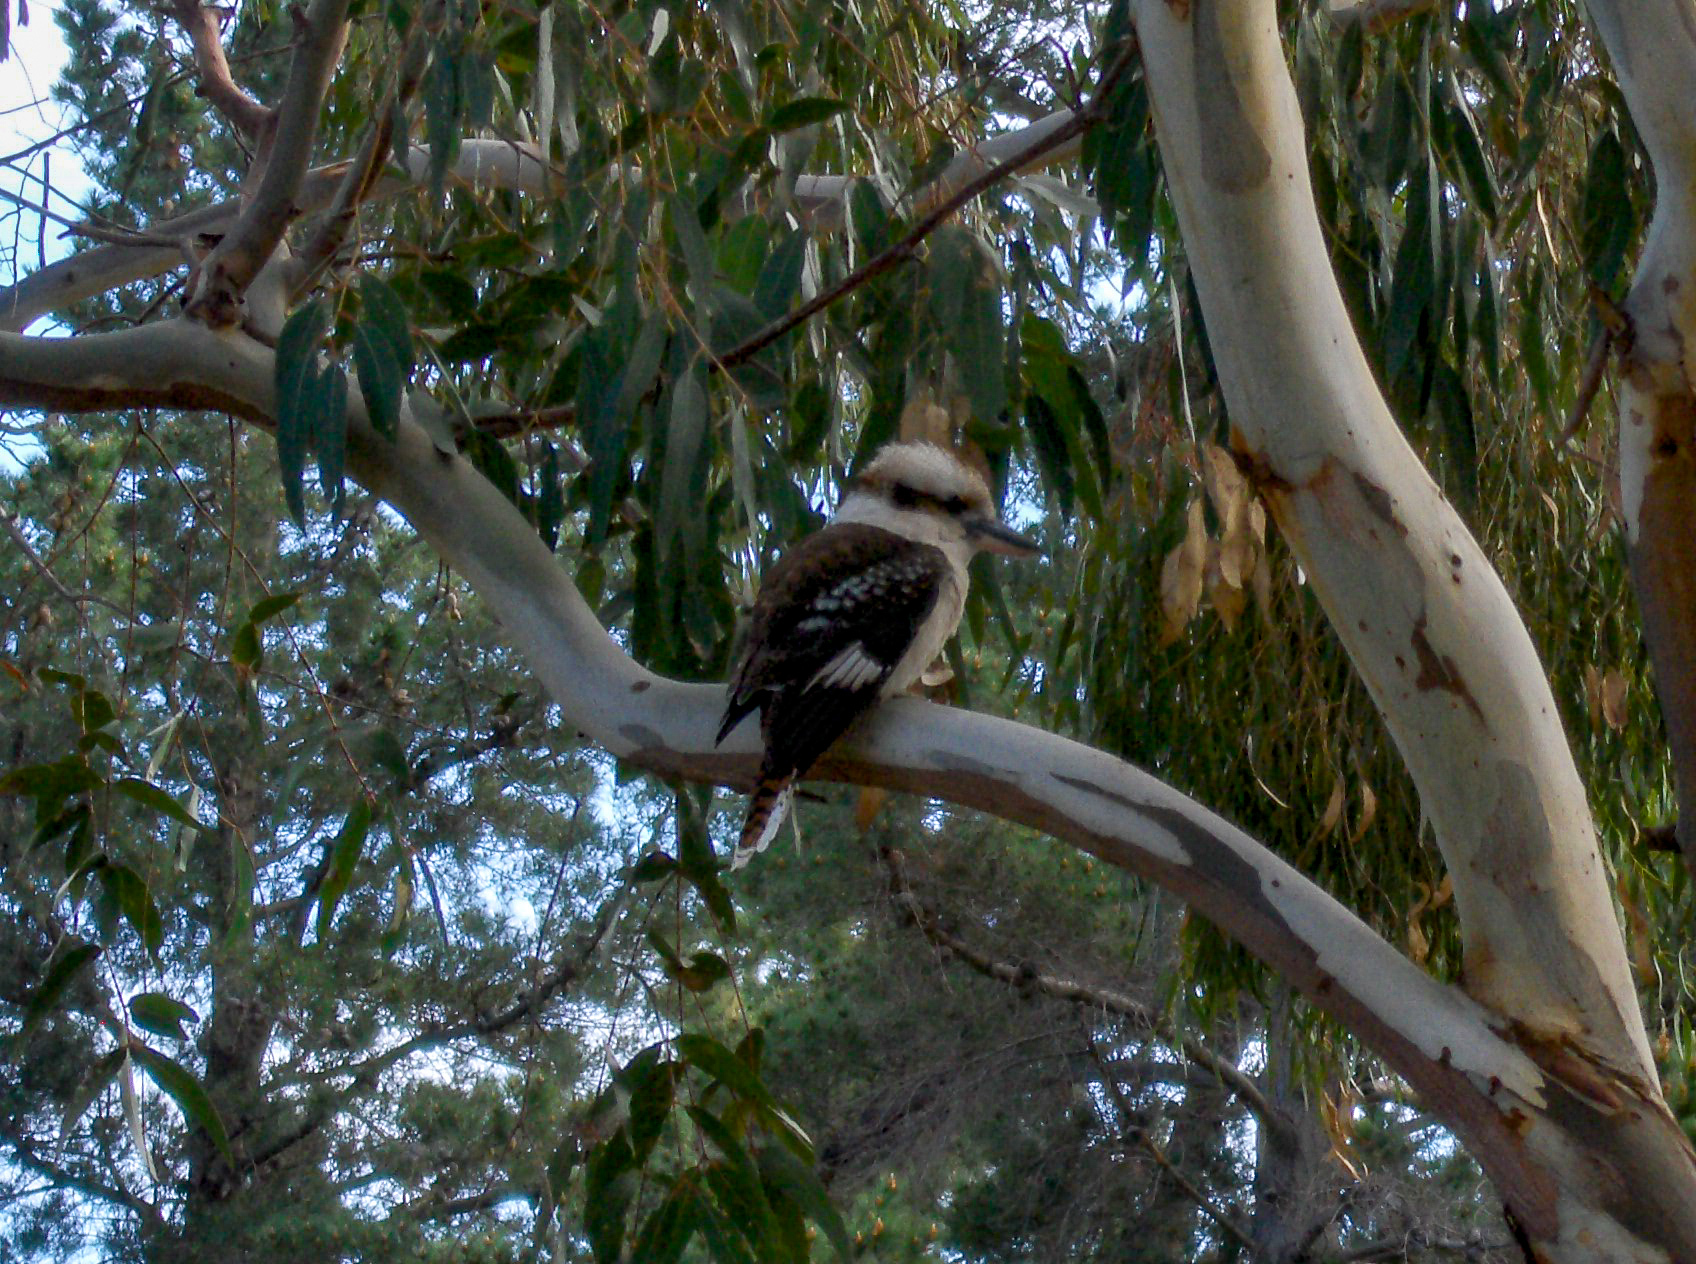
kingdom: Animalia
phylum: Chordata
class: Aves
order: Coraciiformes
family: Alcedinidae
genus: Dacelo
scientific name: Dacelo novaeguineae
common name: Laughing kookaburra
